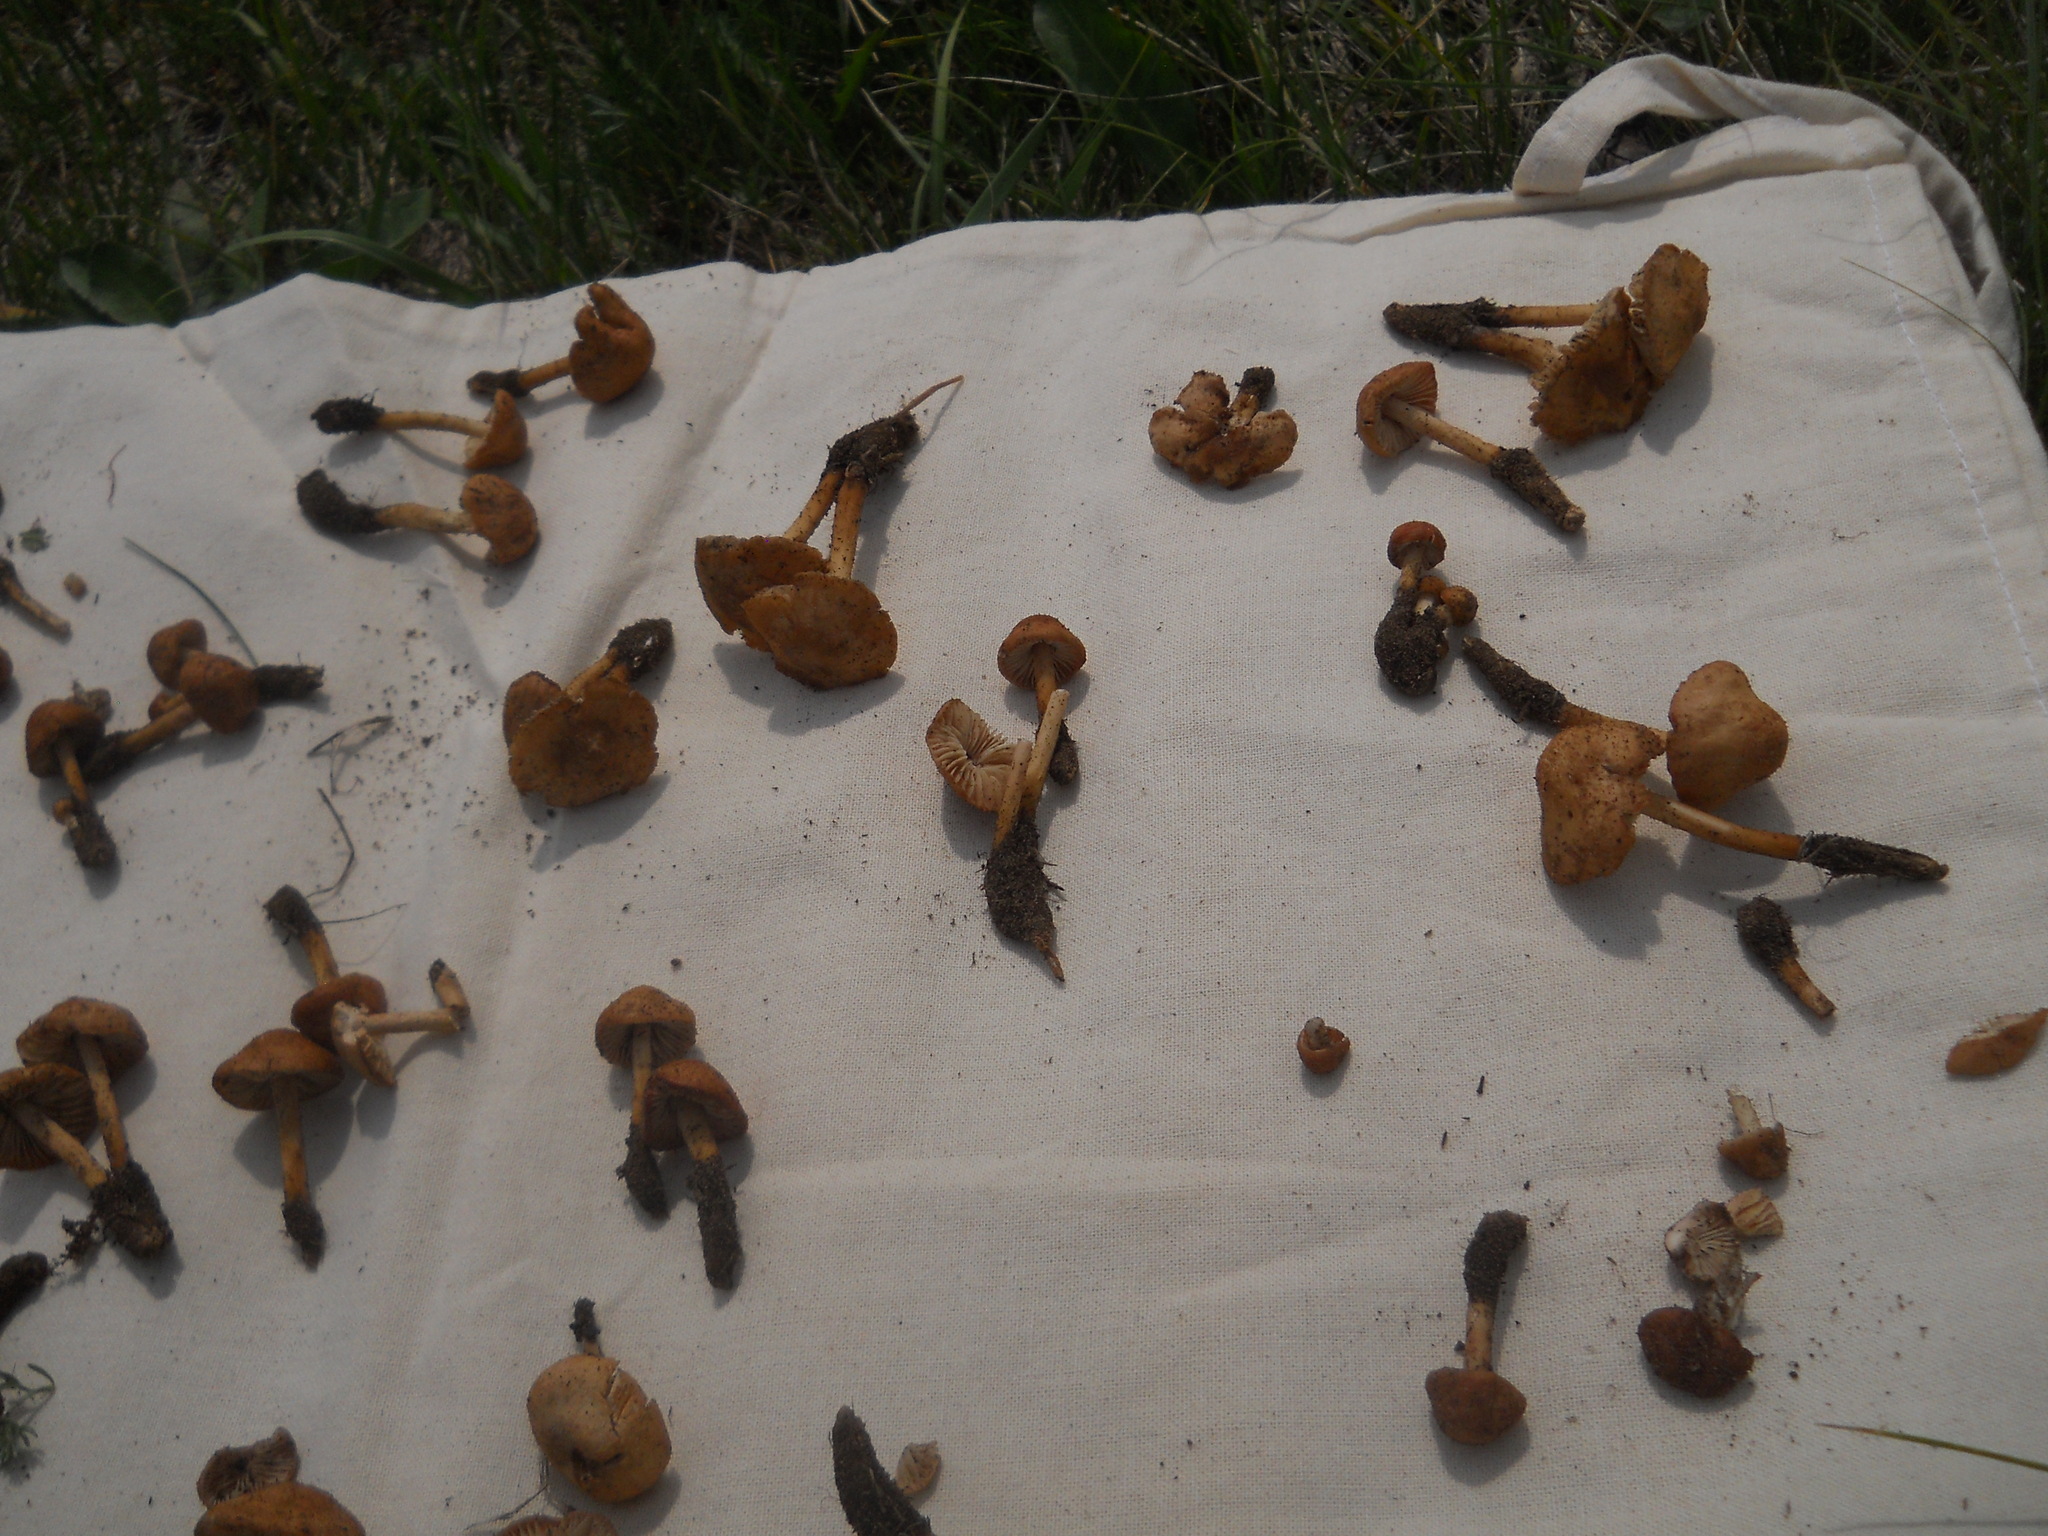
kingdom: Fungi
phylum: Basidiomycota
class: Agaricomycetes
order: Agaricales
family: Inocybaceae
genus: Inocybe
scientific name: Inocybe dulcamara
